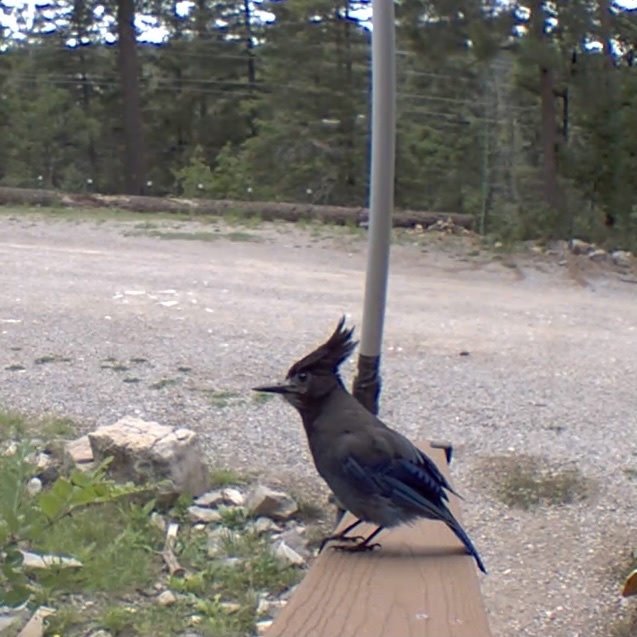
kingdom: Animalia
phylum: Chordata
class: Aves
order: Passeriformes
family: Corvidae
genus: Cyanocitta
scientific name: Cyanocitta stelleri
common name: Steller's jay
